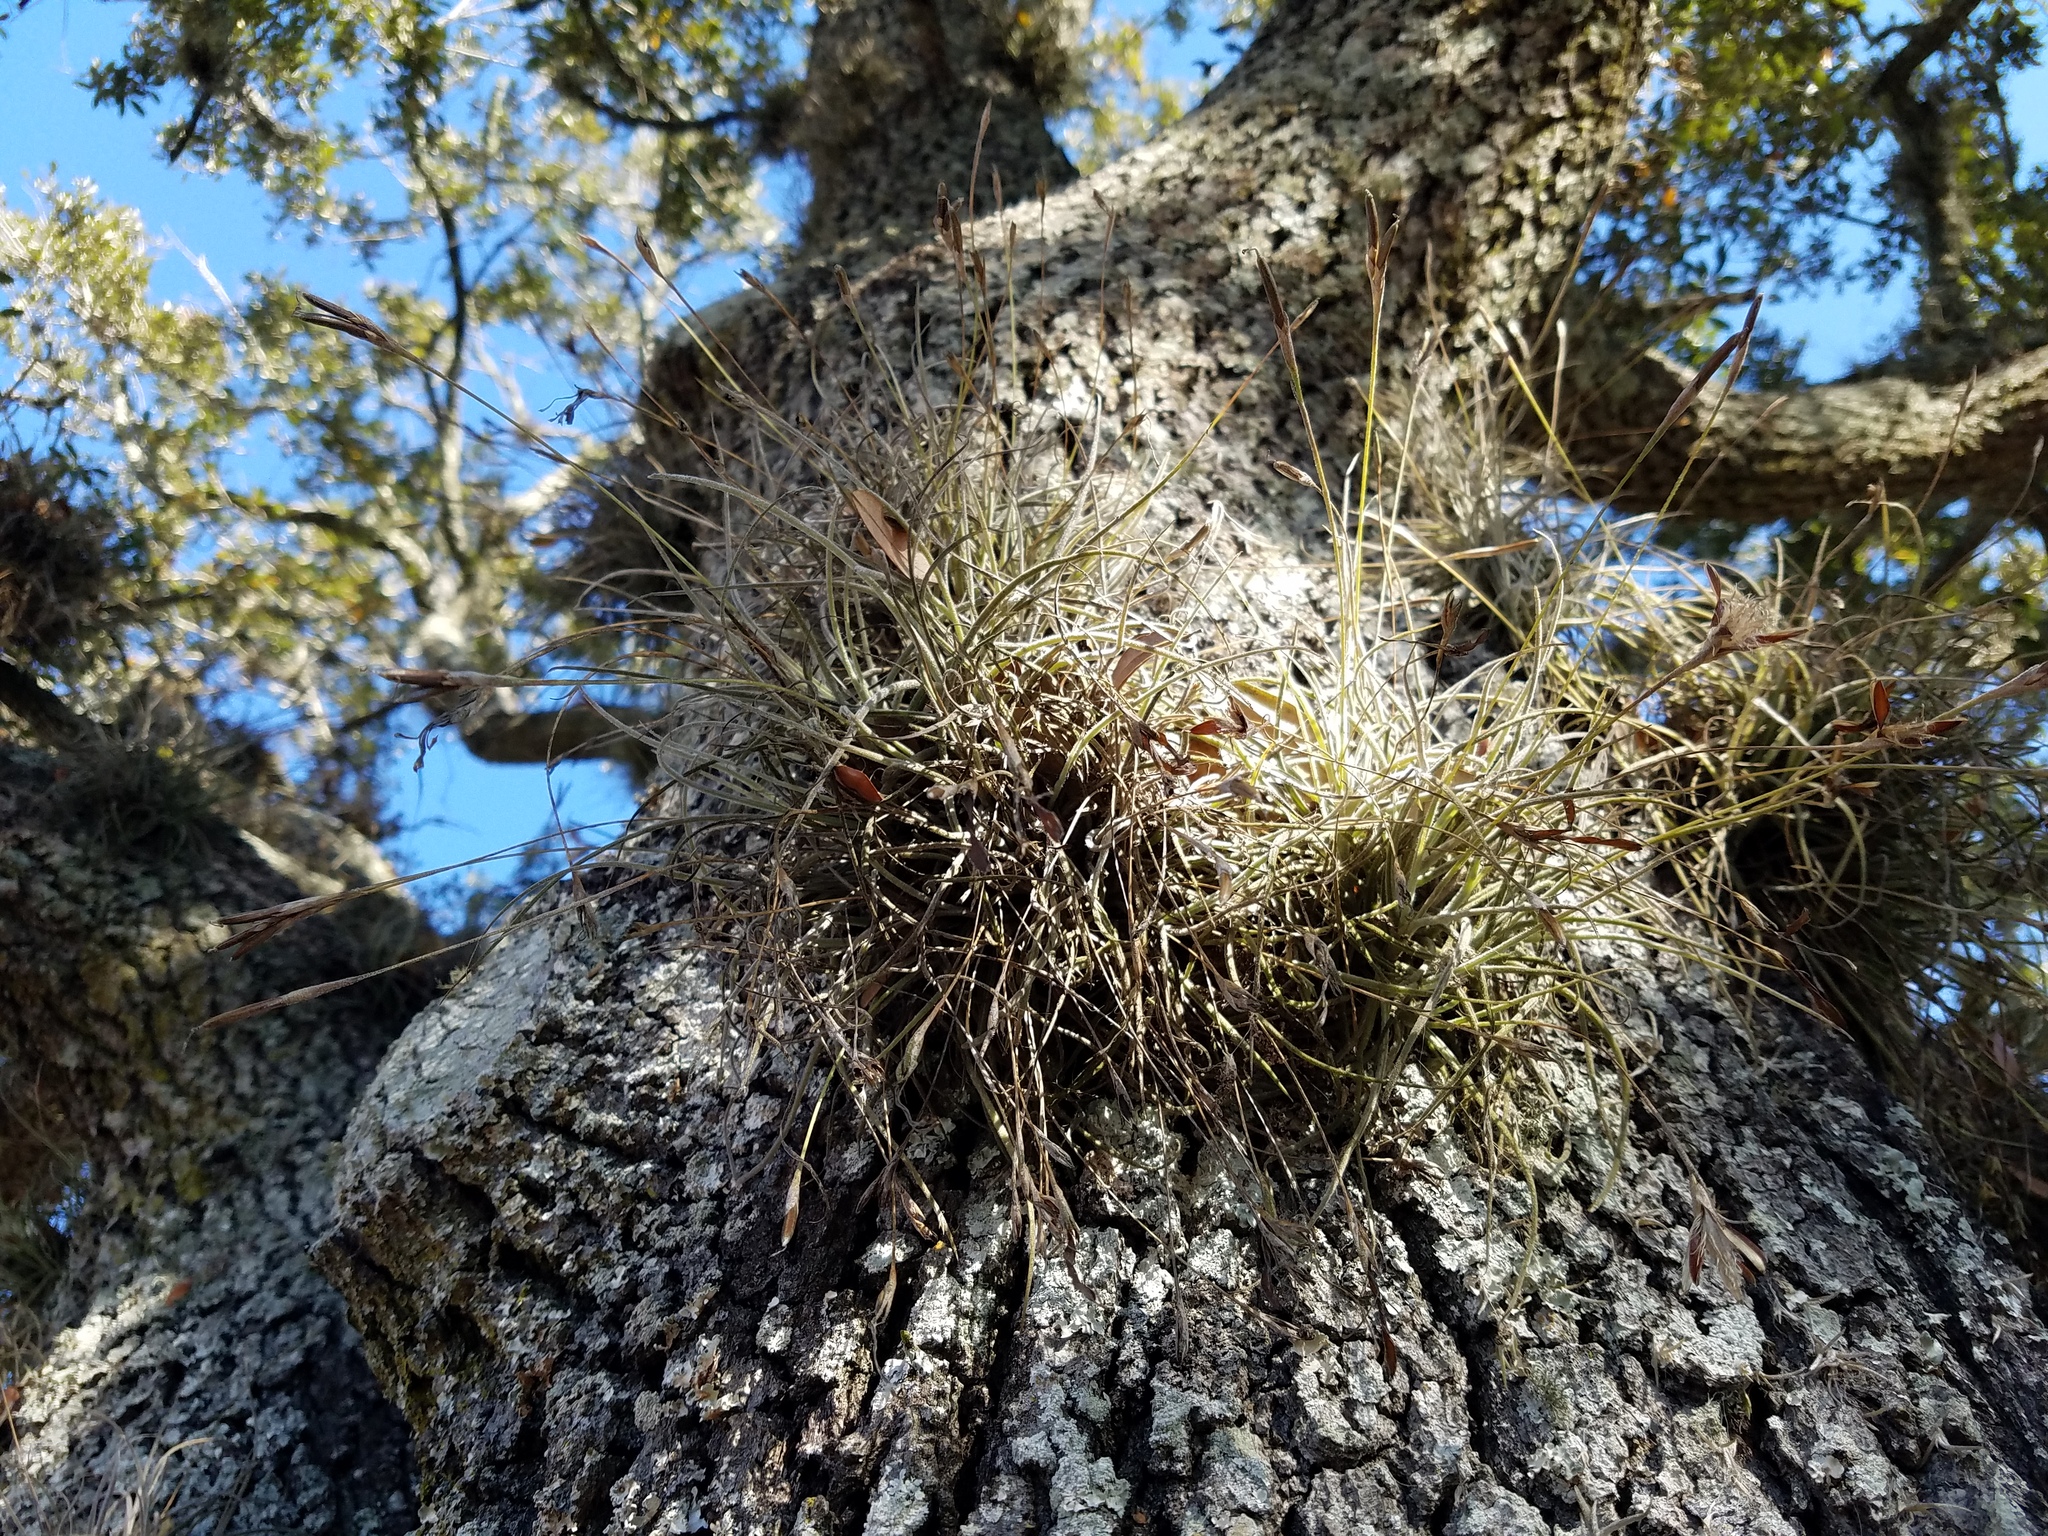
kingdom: Plantae
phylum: Tracheophyta
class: Liliopsida
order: Poales
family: Bromeliaceae
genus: Tillandsia
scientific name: Tillandsia recurvata
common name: Small ballmoss
